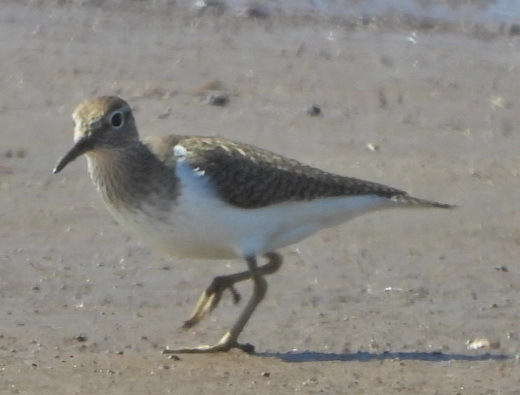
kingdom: Animalia
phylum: Chordata
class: Aves
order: Charadriiformes
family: Scolopacidae
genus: Actitis
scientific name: Actitis hypoleucos
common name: Common sandpiper
